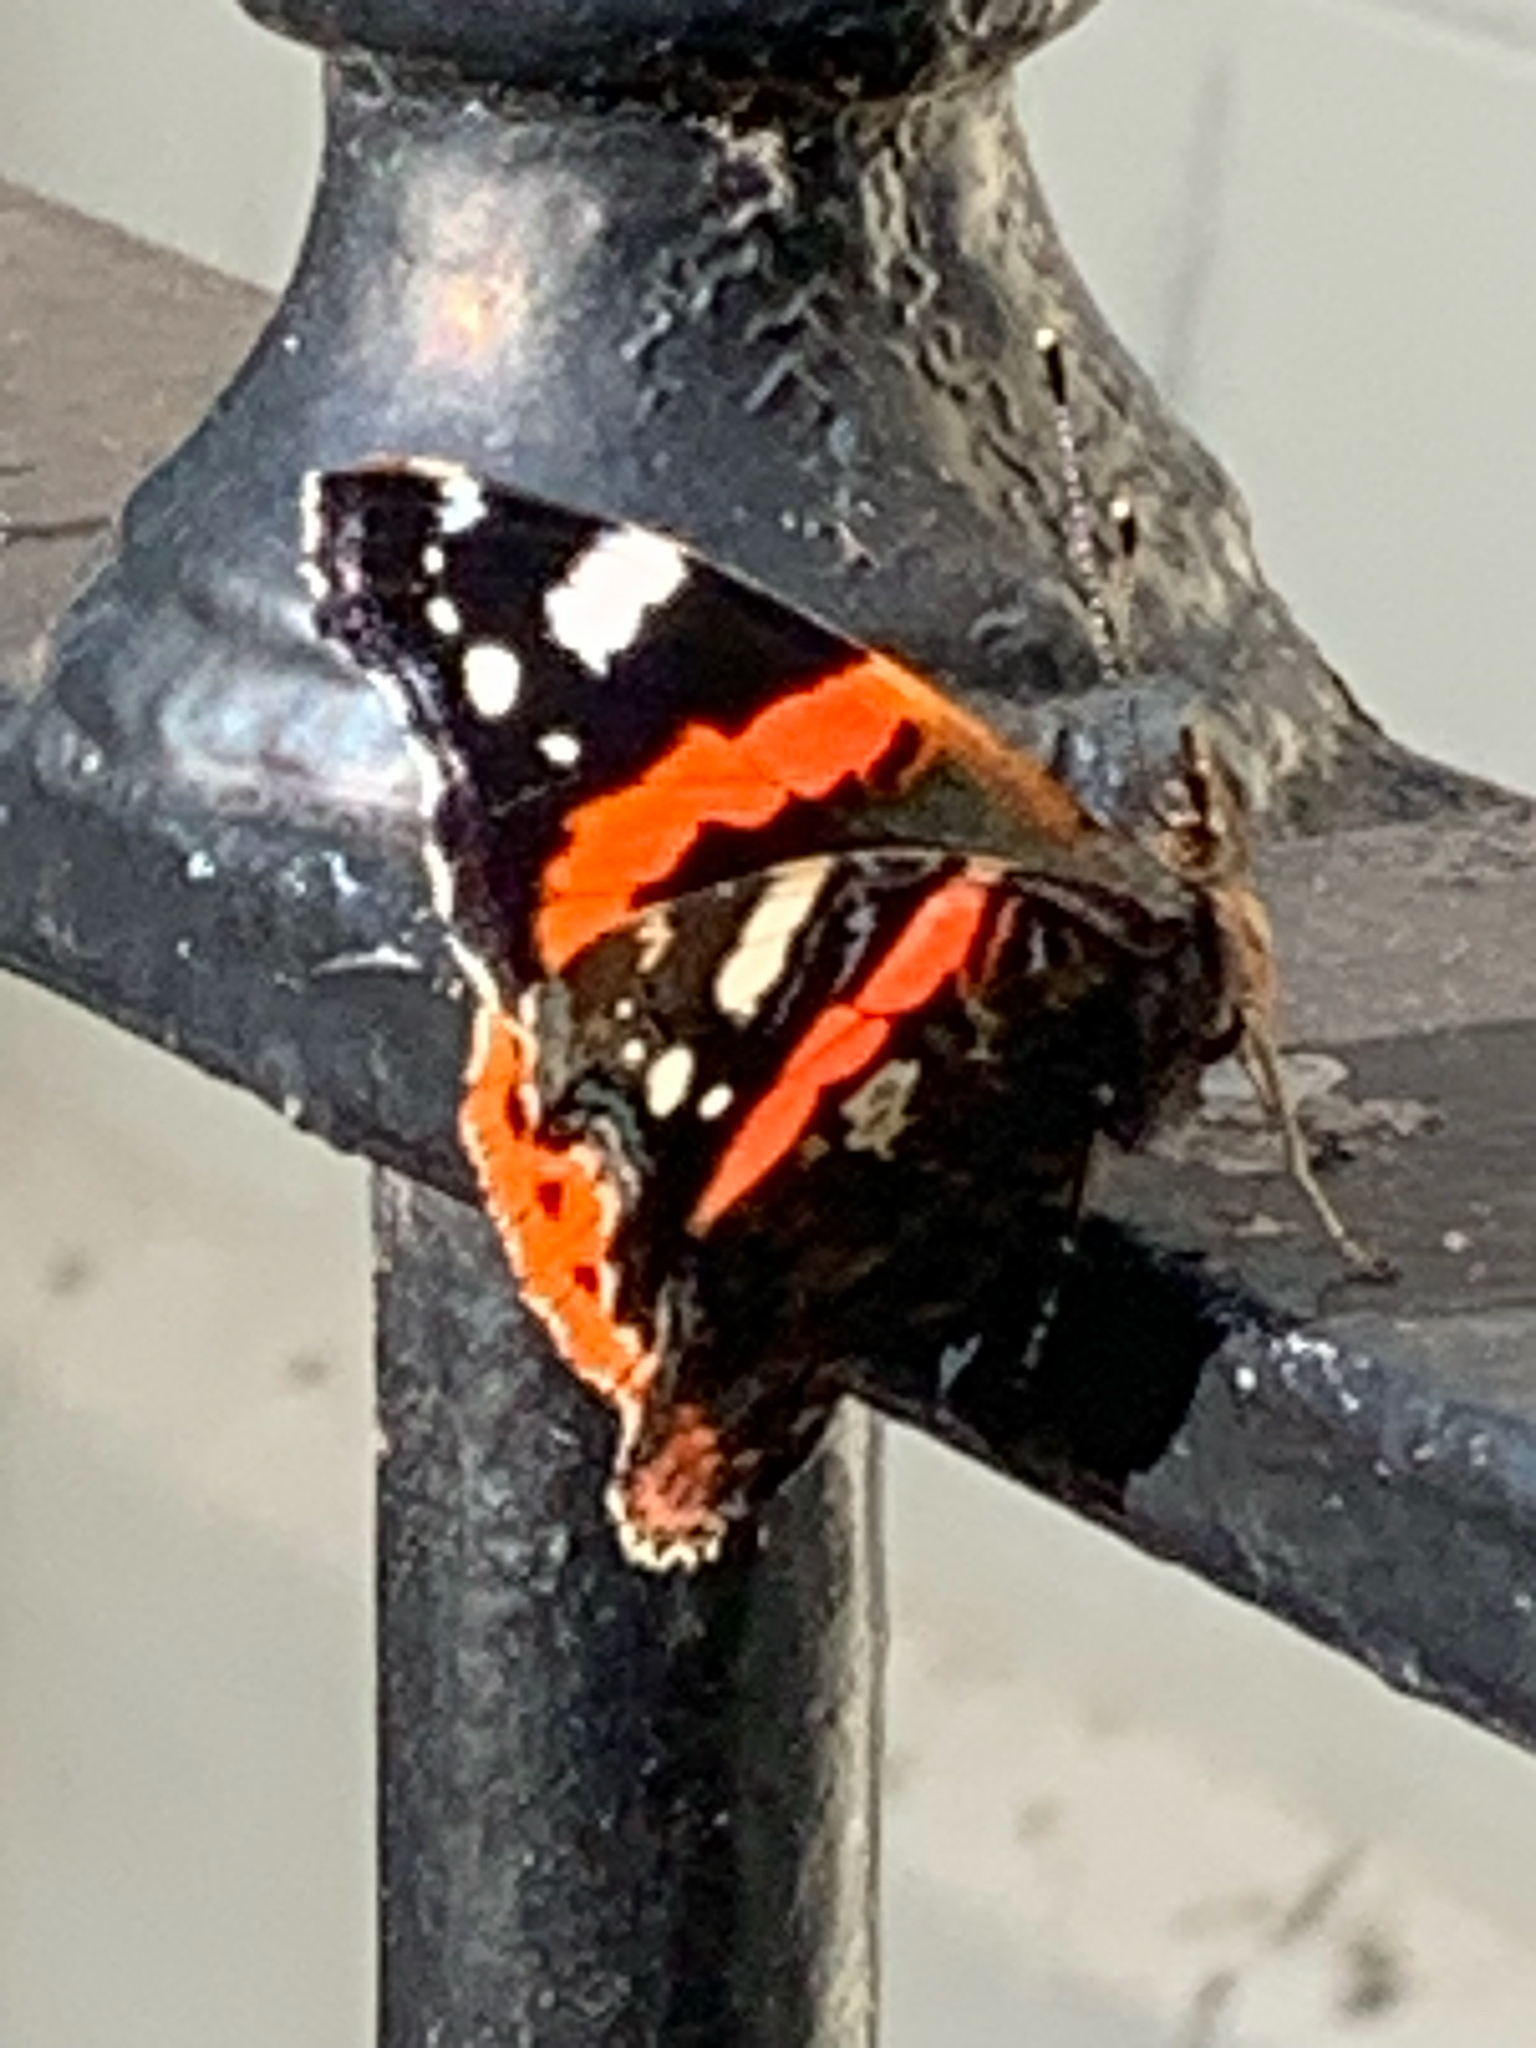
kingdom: Animalia
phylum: Arthropoda
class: Insecta
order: Lepidoptera
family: Nymphalidae
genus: Vanessa
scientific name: Vanessa atalanta
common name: Red admiral
